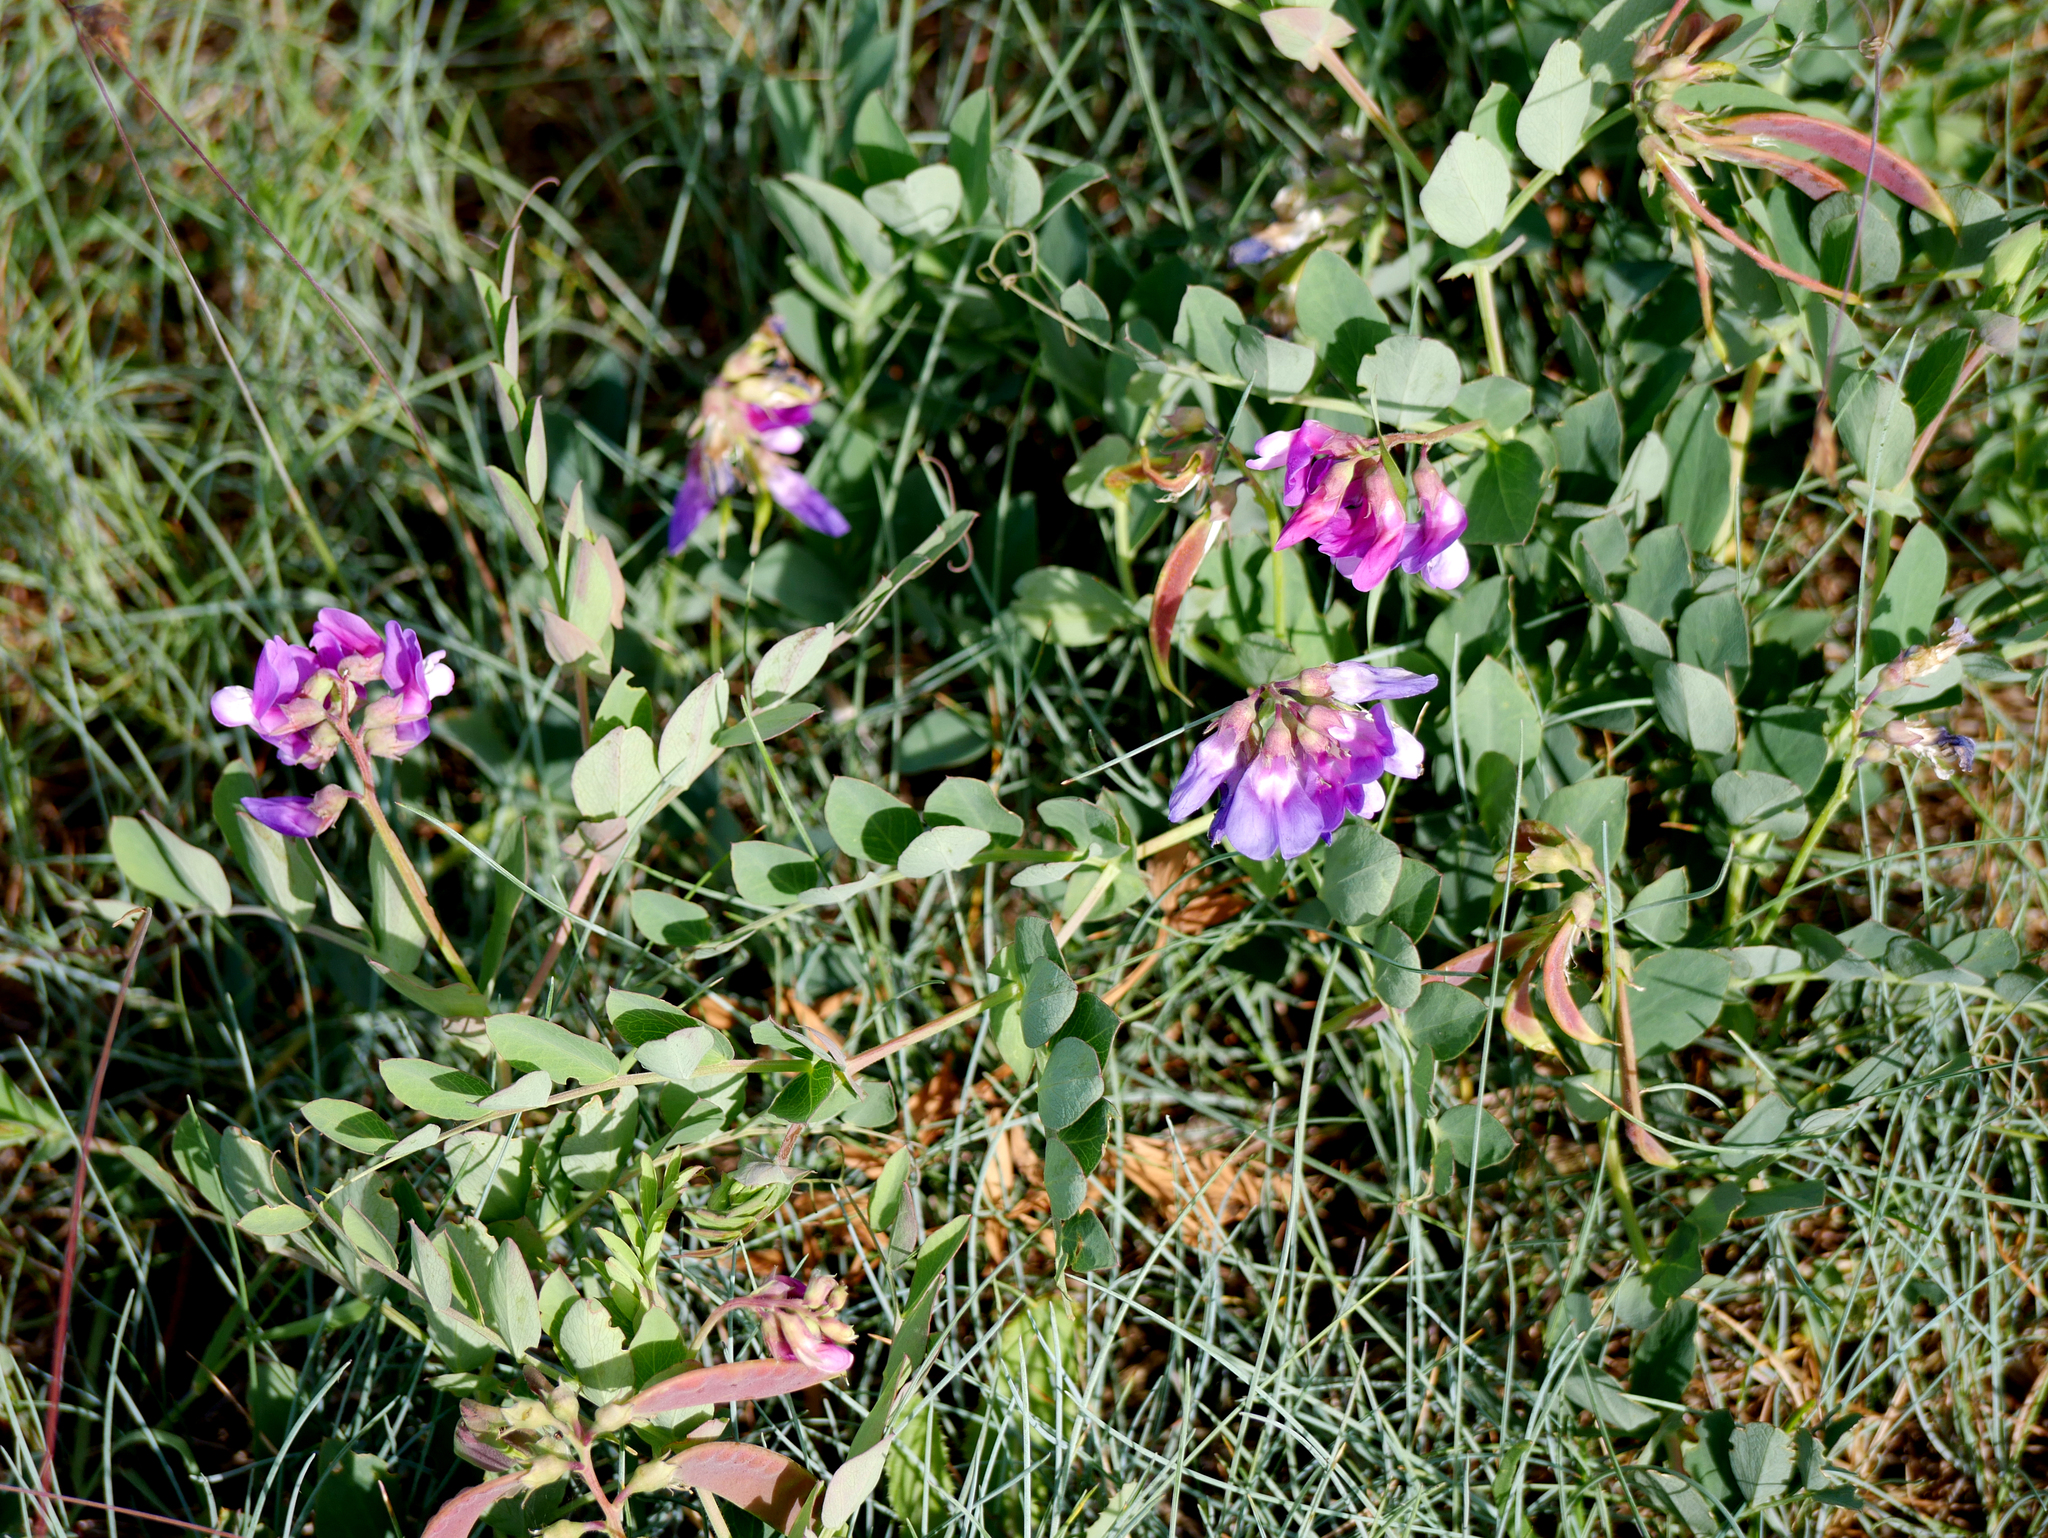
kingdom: Plantae
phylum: Tracheophyta
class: Magnoliopsida
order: Fabales
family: Fabaceae
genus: Lathyrus
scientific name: Lathyrus japonicus
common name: Sea pea
